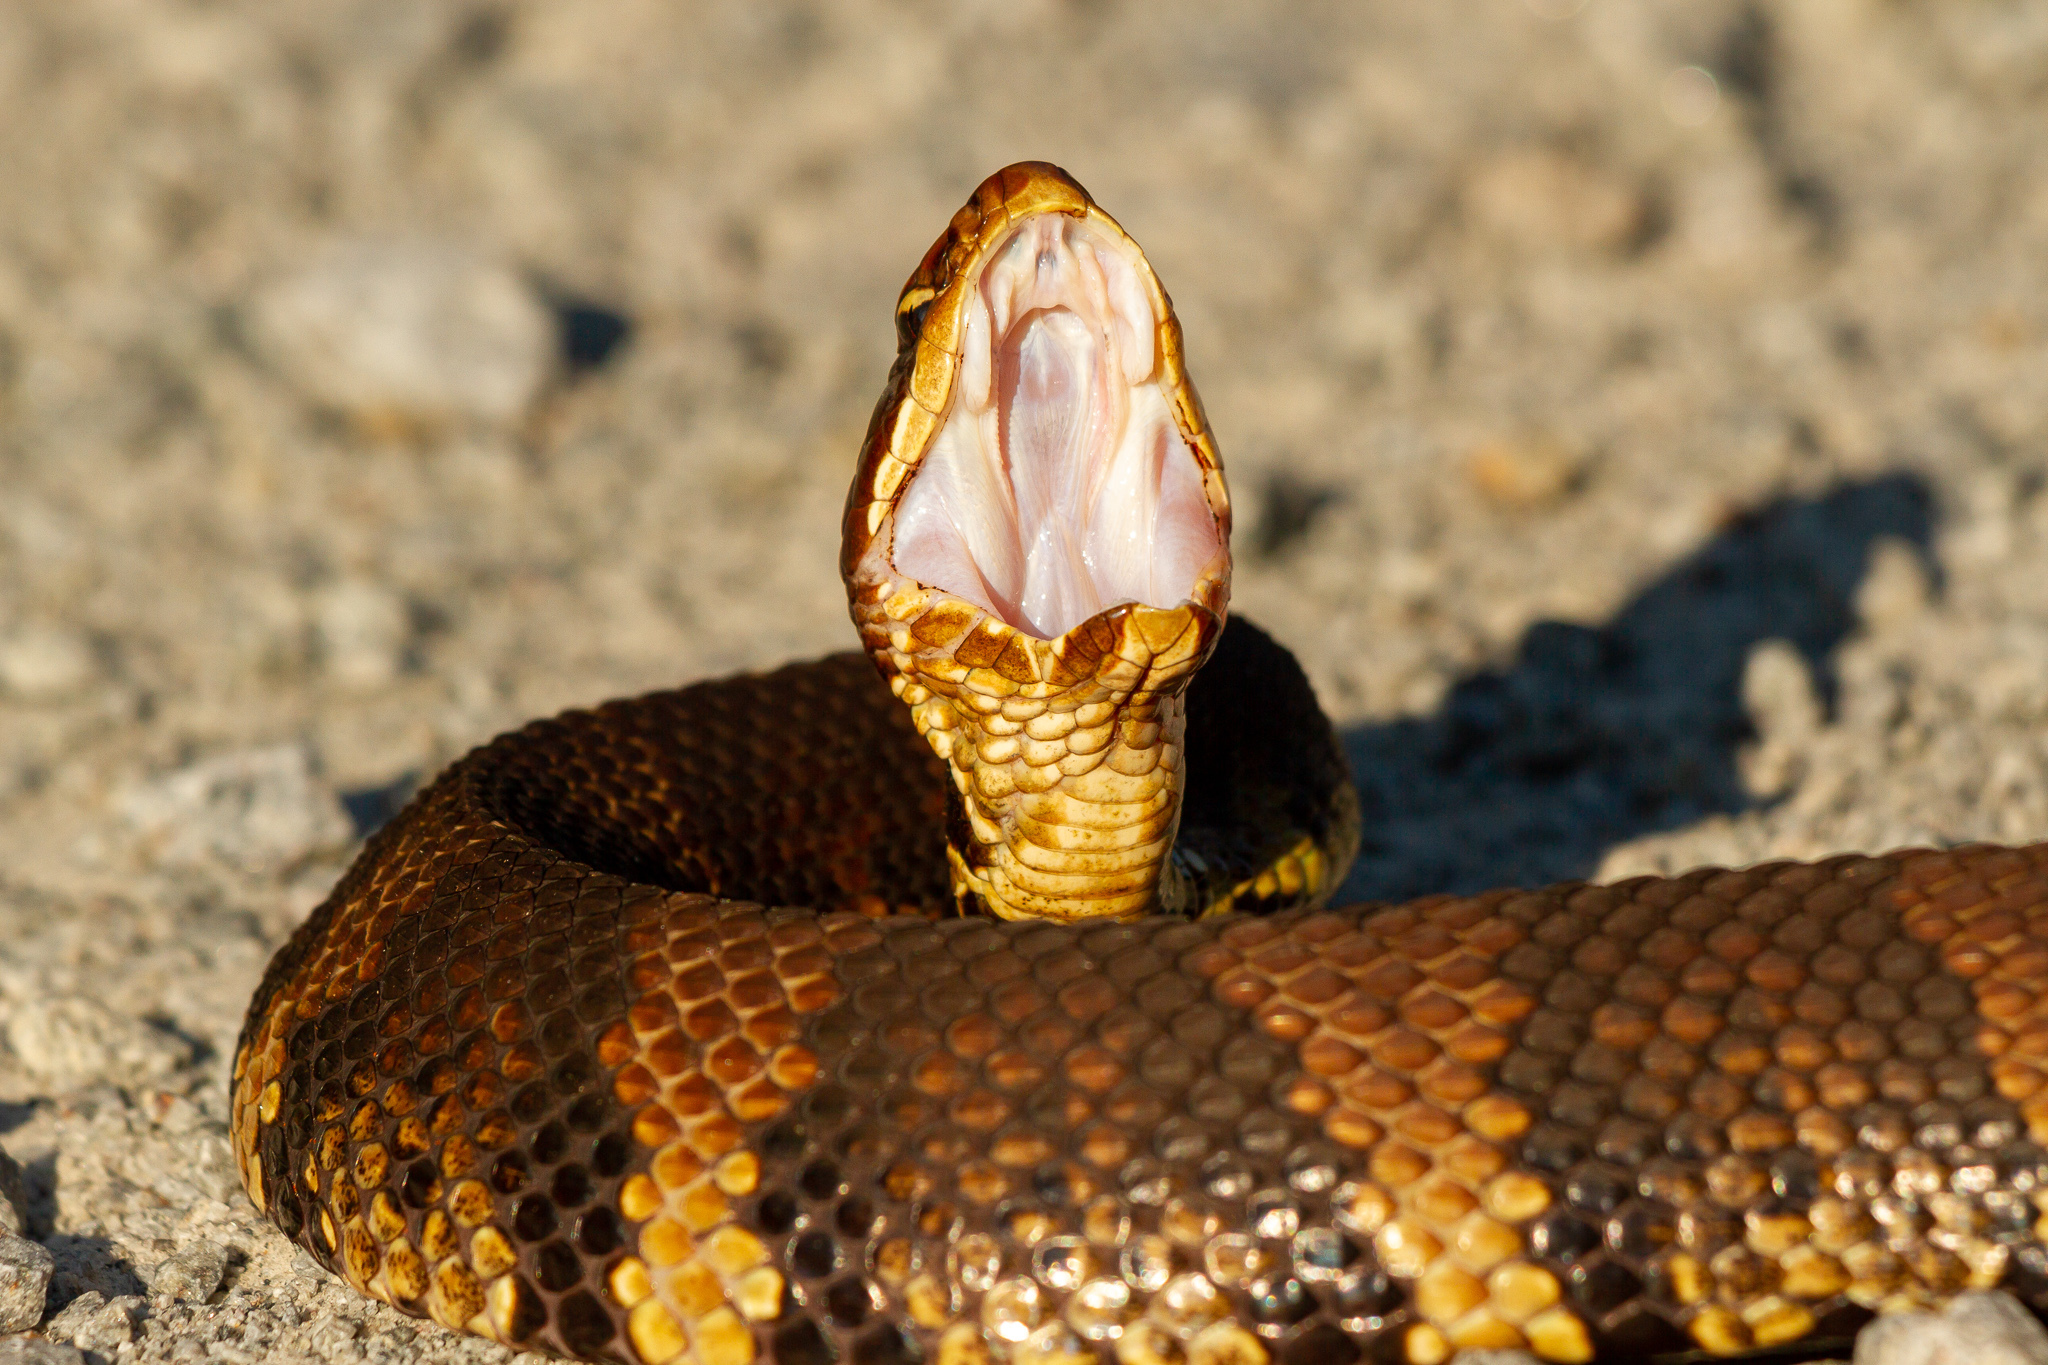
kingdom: Animalia
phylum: Chordata
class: Squamata
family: Viperidae
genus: Agkistrodon
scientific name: Agkistrodon piscivorus
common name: Cottonmouth
